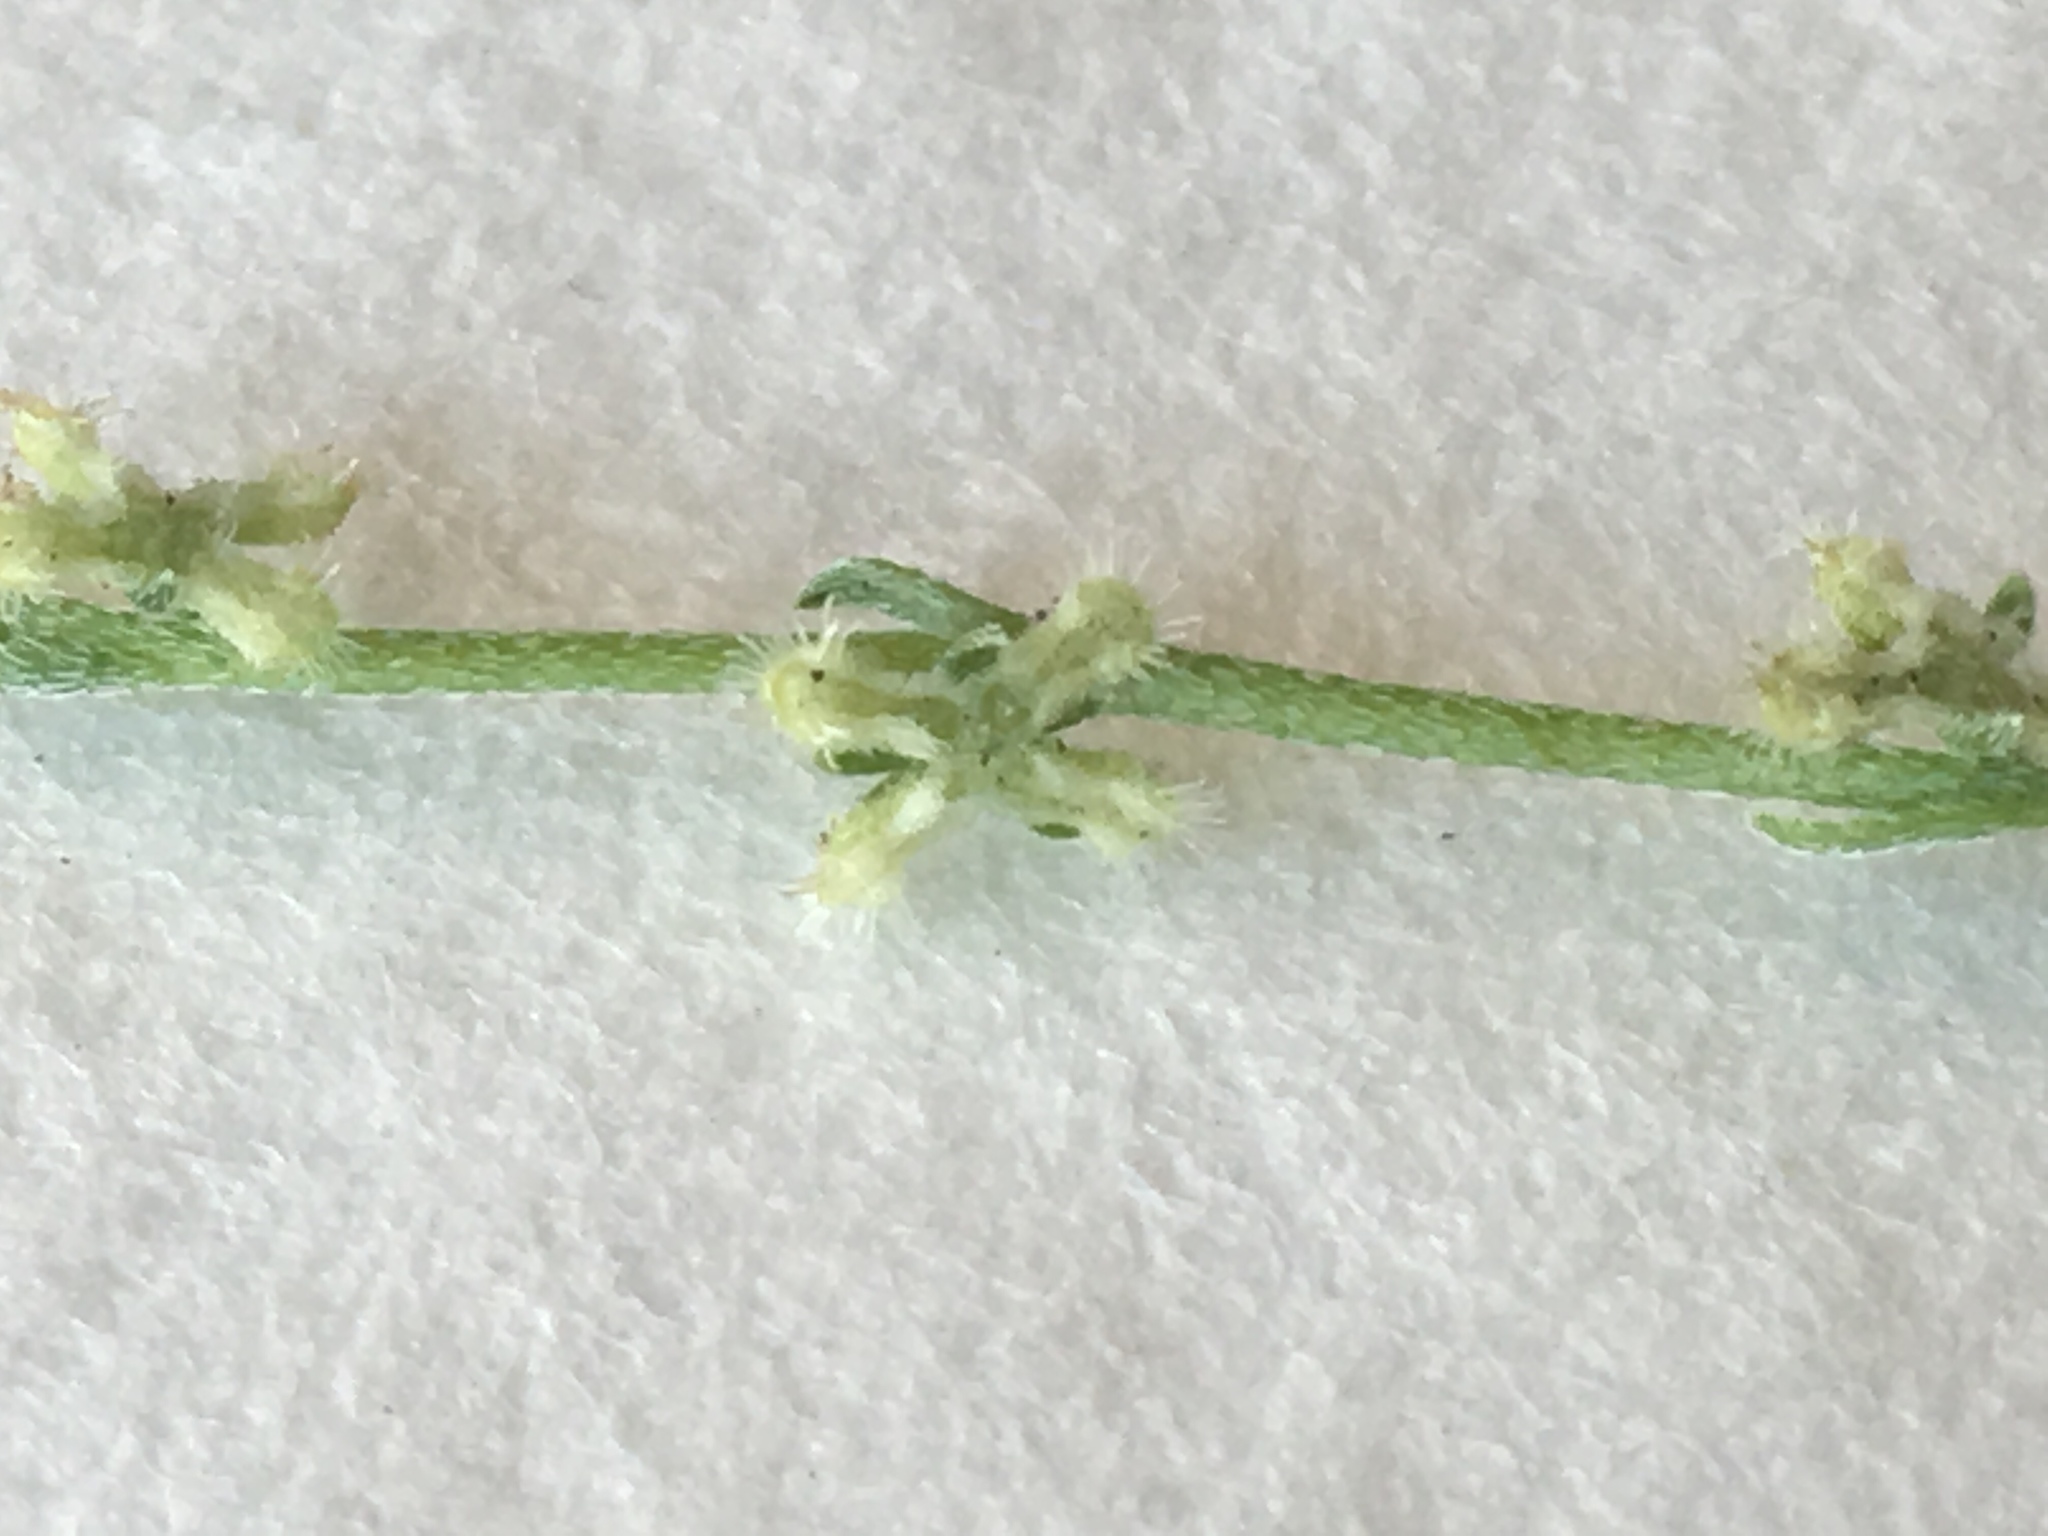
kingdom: Plantae
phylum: Tracheophyta
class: Magnoliopsida
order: Boraginales
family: Boraginaceae
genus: Pectocarya
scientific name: Pectocarya penicillata
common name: Short-leaved combseed
